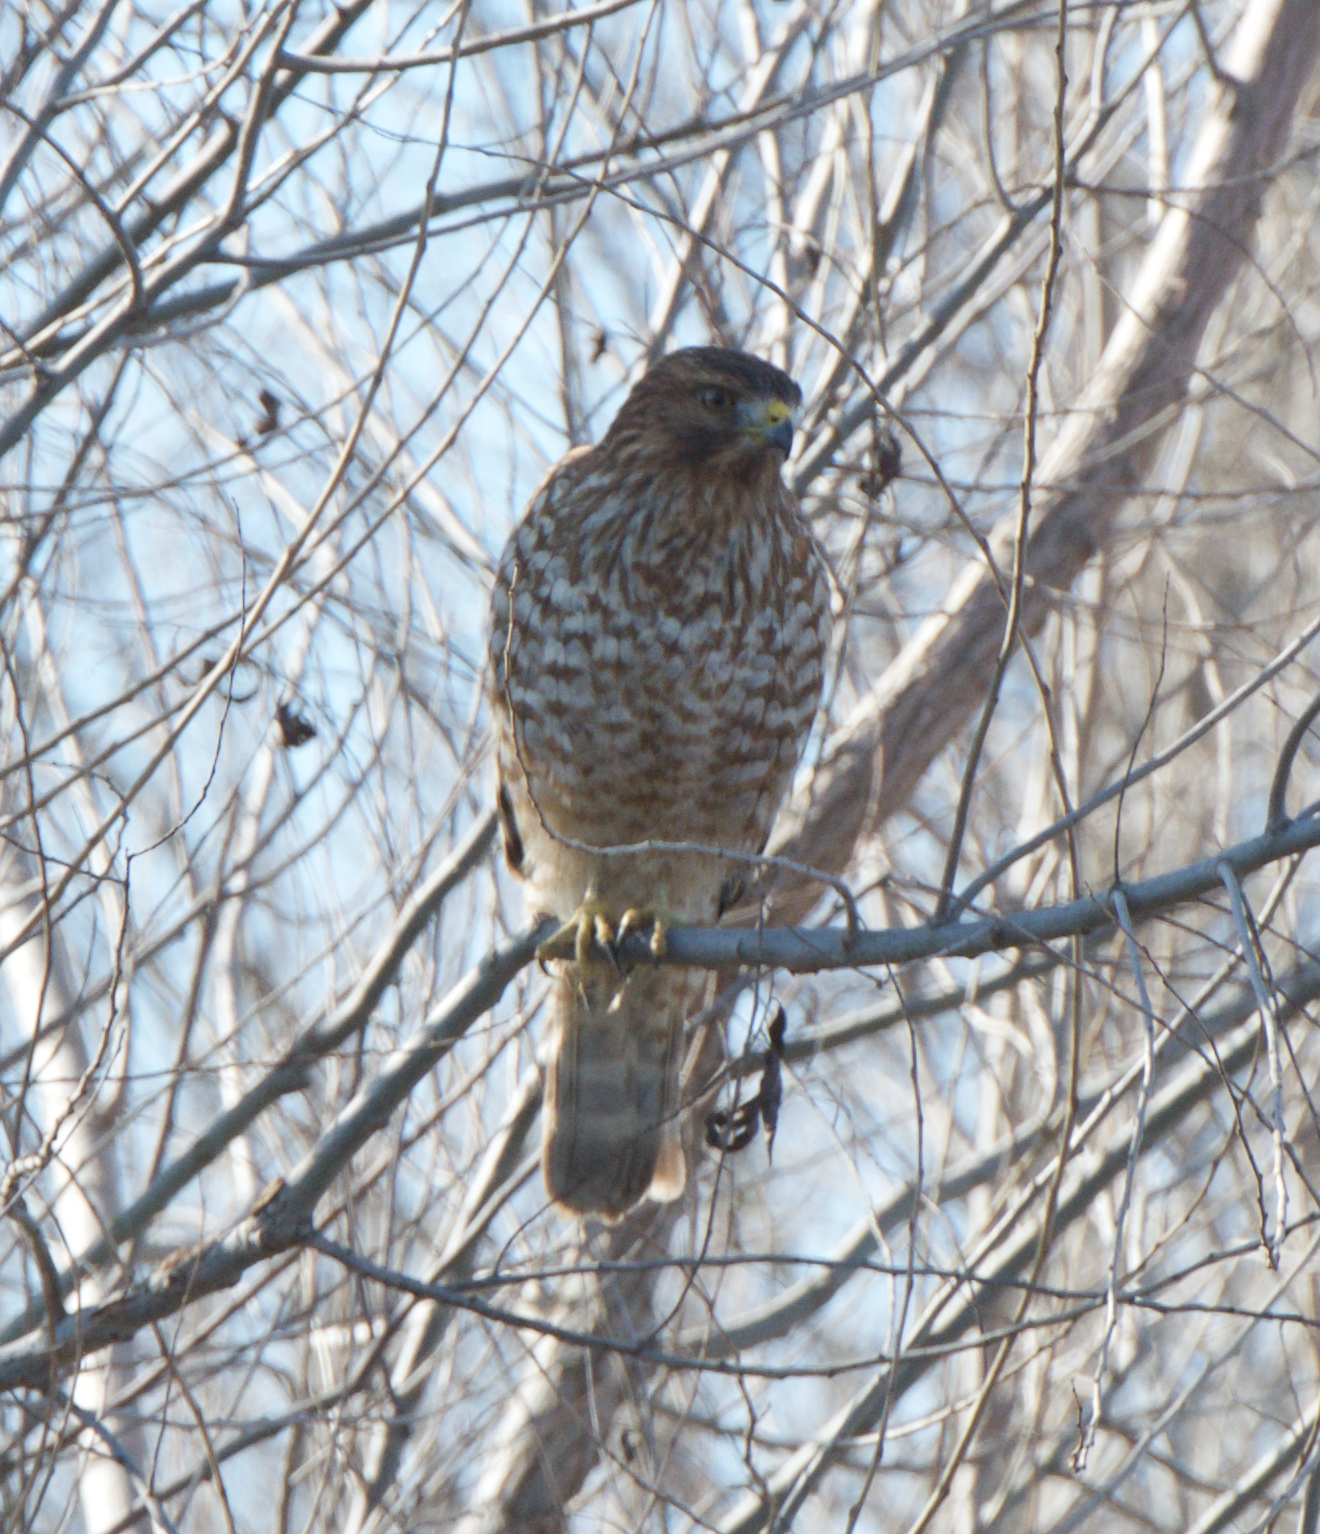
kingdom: Animalia
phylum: Chordata
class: Aves
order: Accipitriformes
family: Accipitridae
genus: Buteo
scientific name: Buteo lineatus
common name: Red-shouldered hawk
